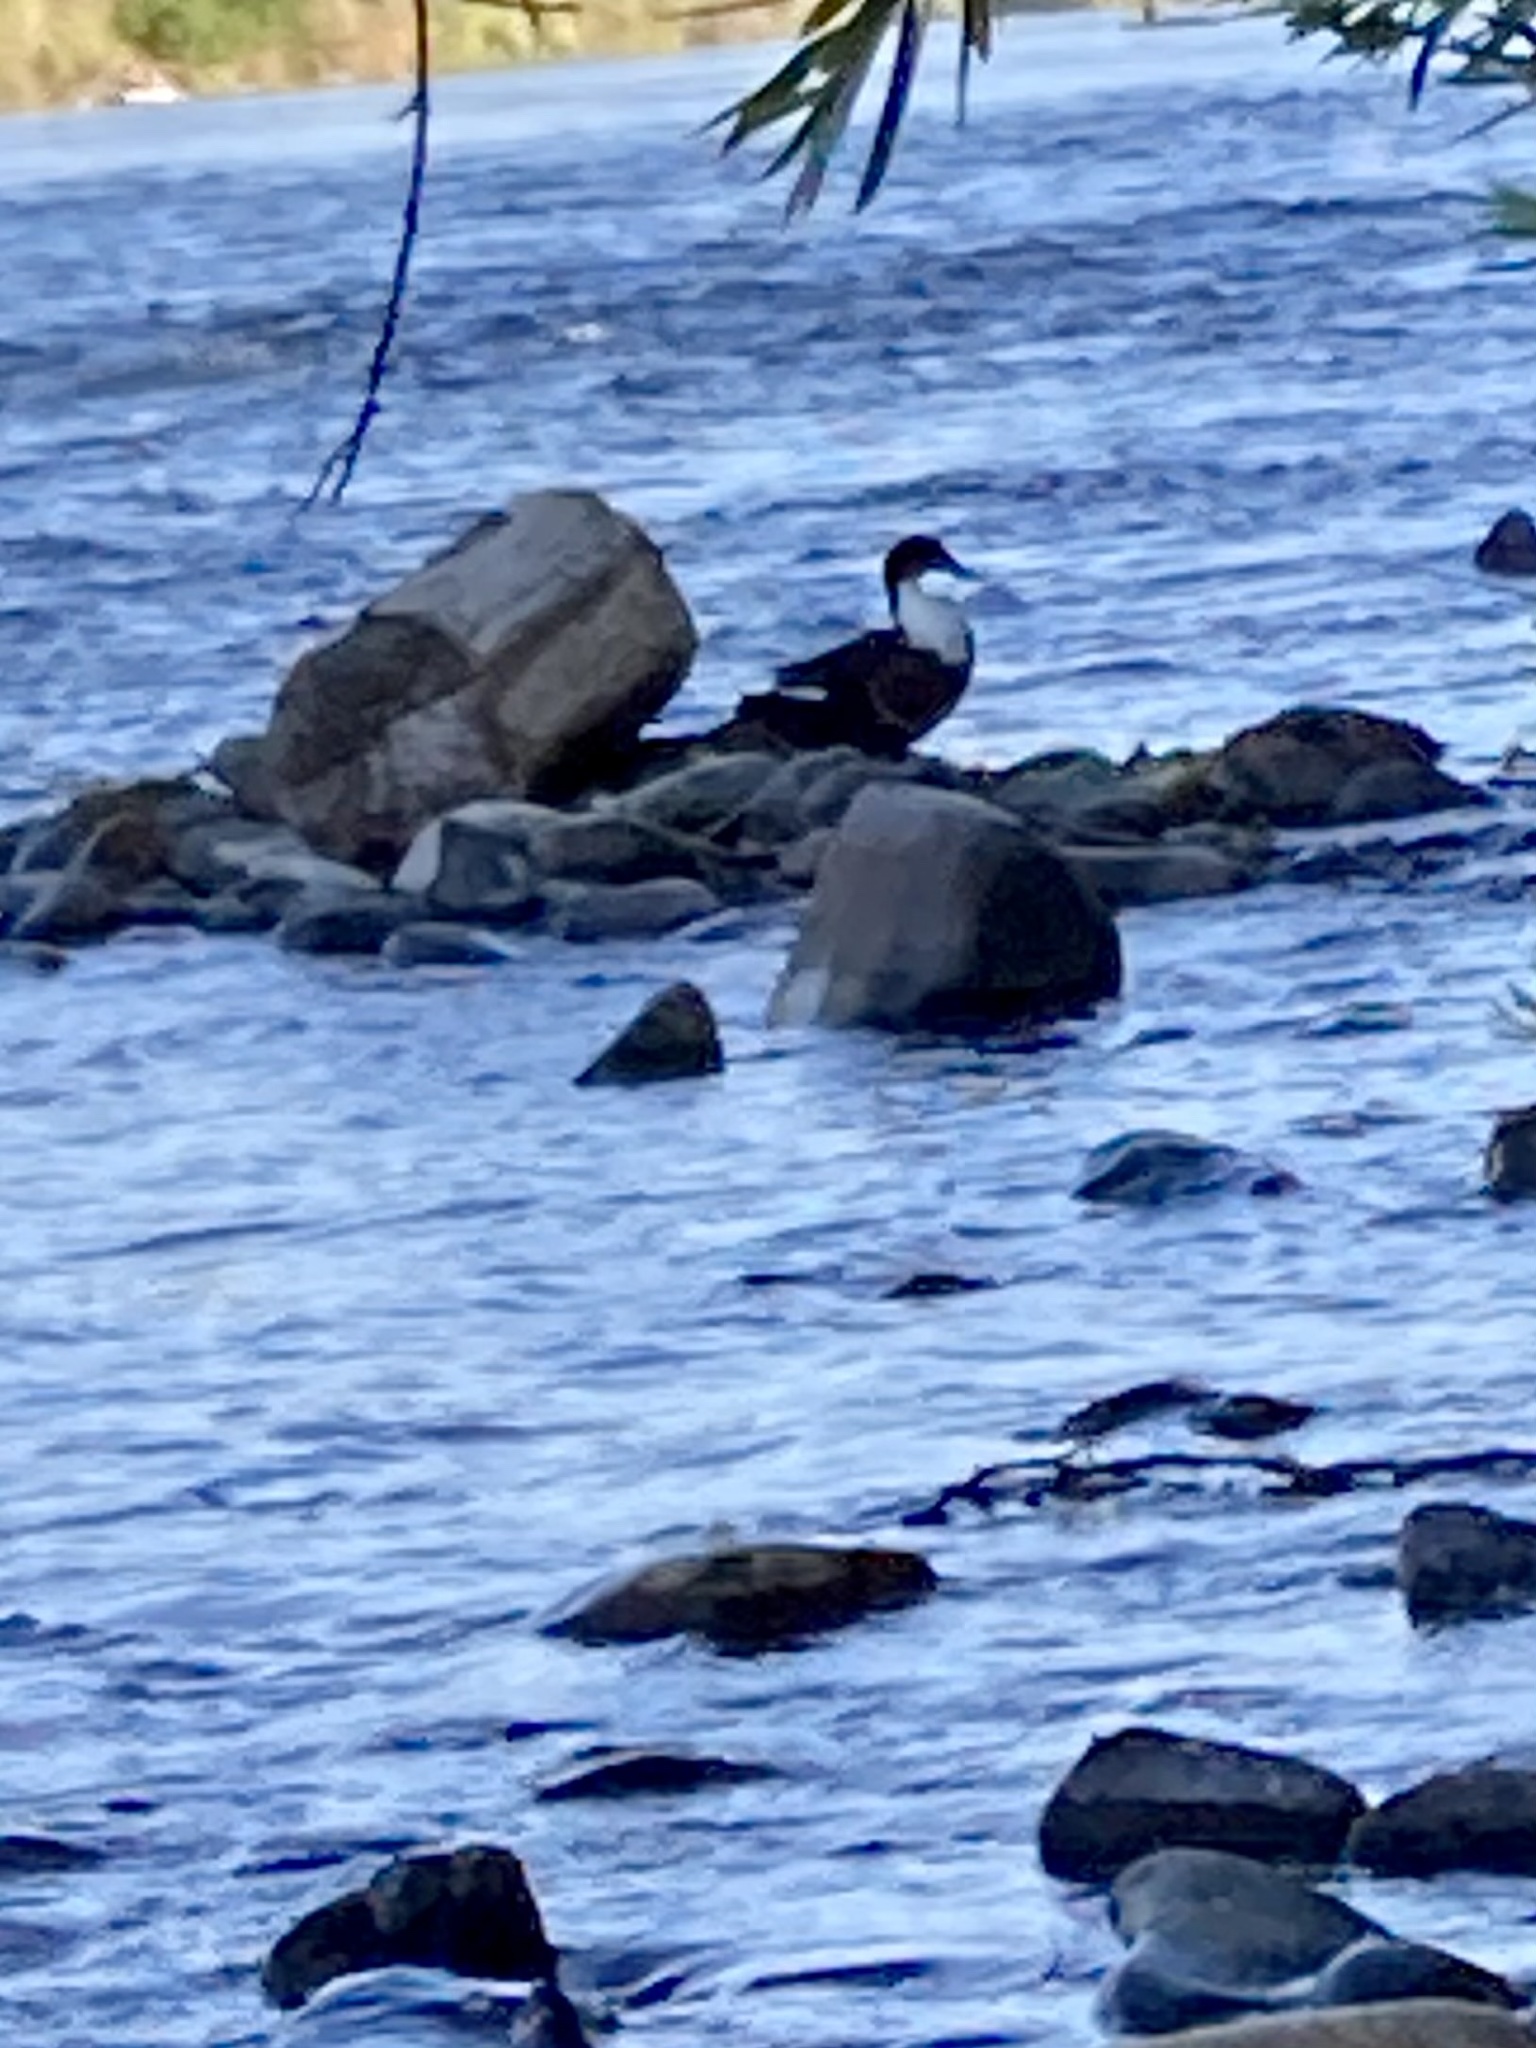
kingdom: Animalia
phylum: Chordata
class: Aves
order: Anseriformes
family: Anatidae
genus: Anas
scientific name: Anas platyrhynchos
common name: Mallard
